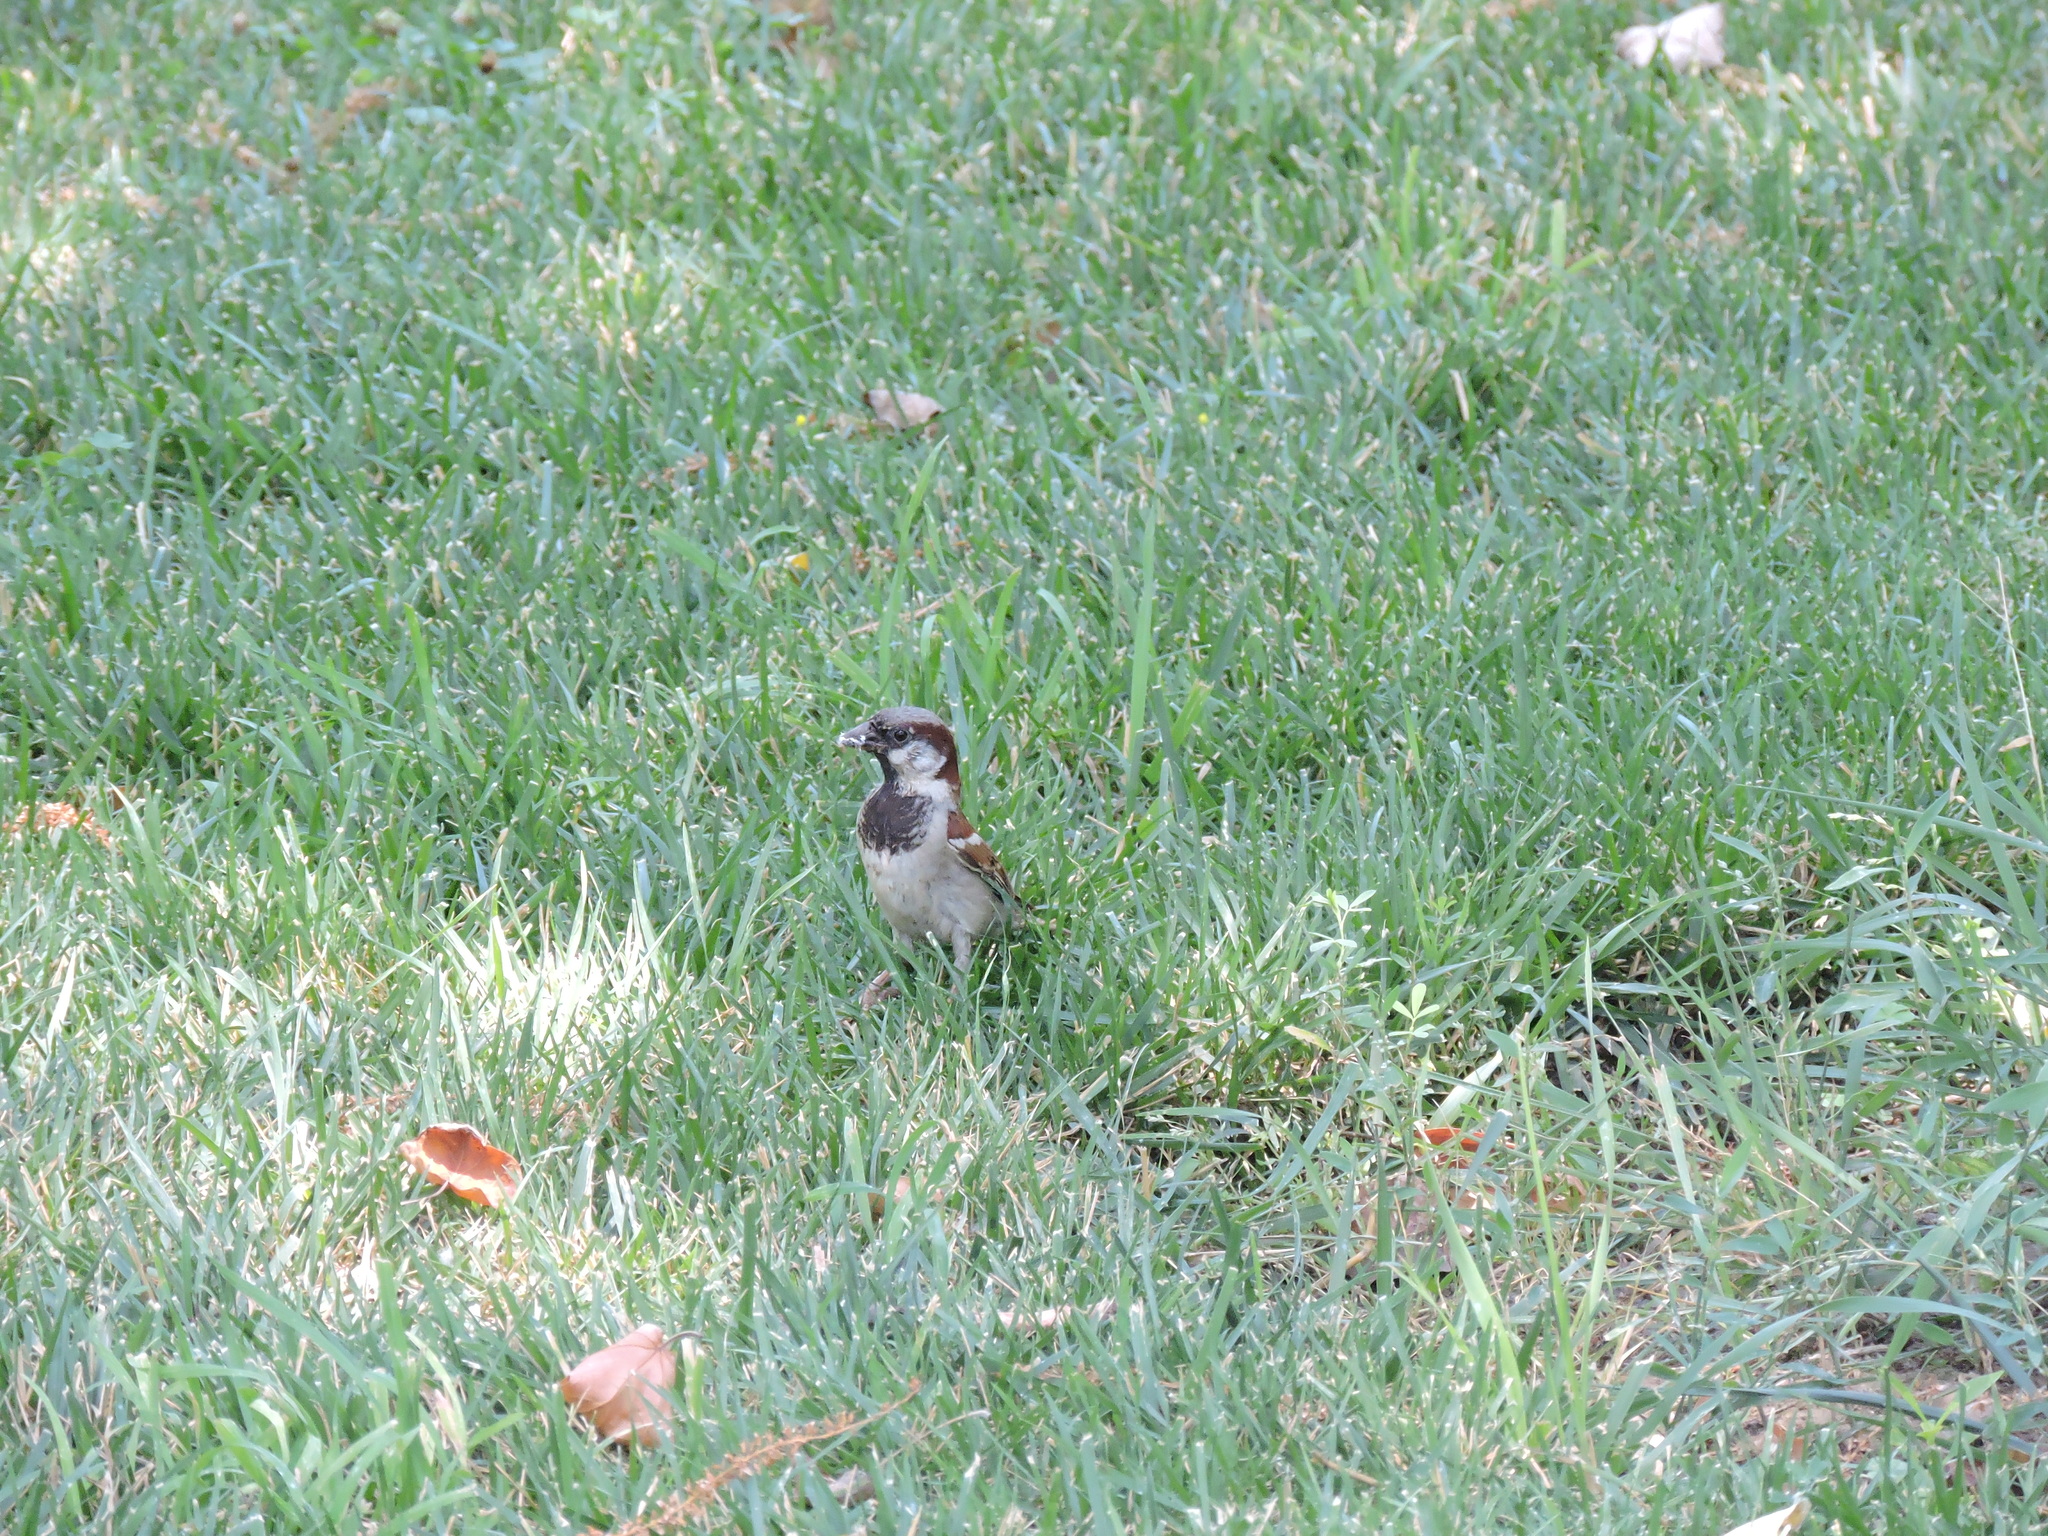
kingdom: Animalia
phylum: Chordata
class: Aves
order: Passeriformes
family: Passeridae
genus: Passer
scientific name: Passer domesticus
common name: House sparrow
